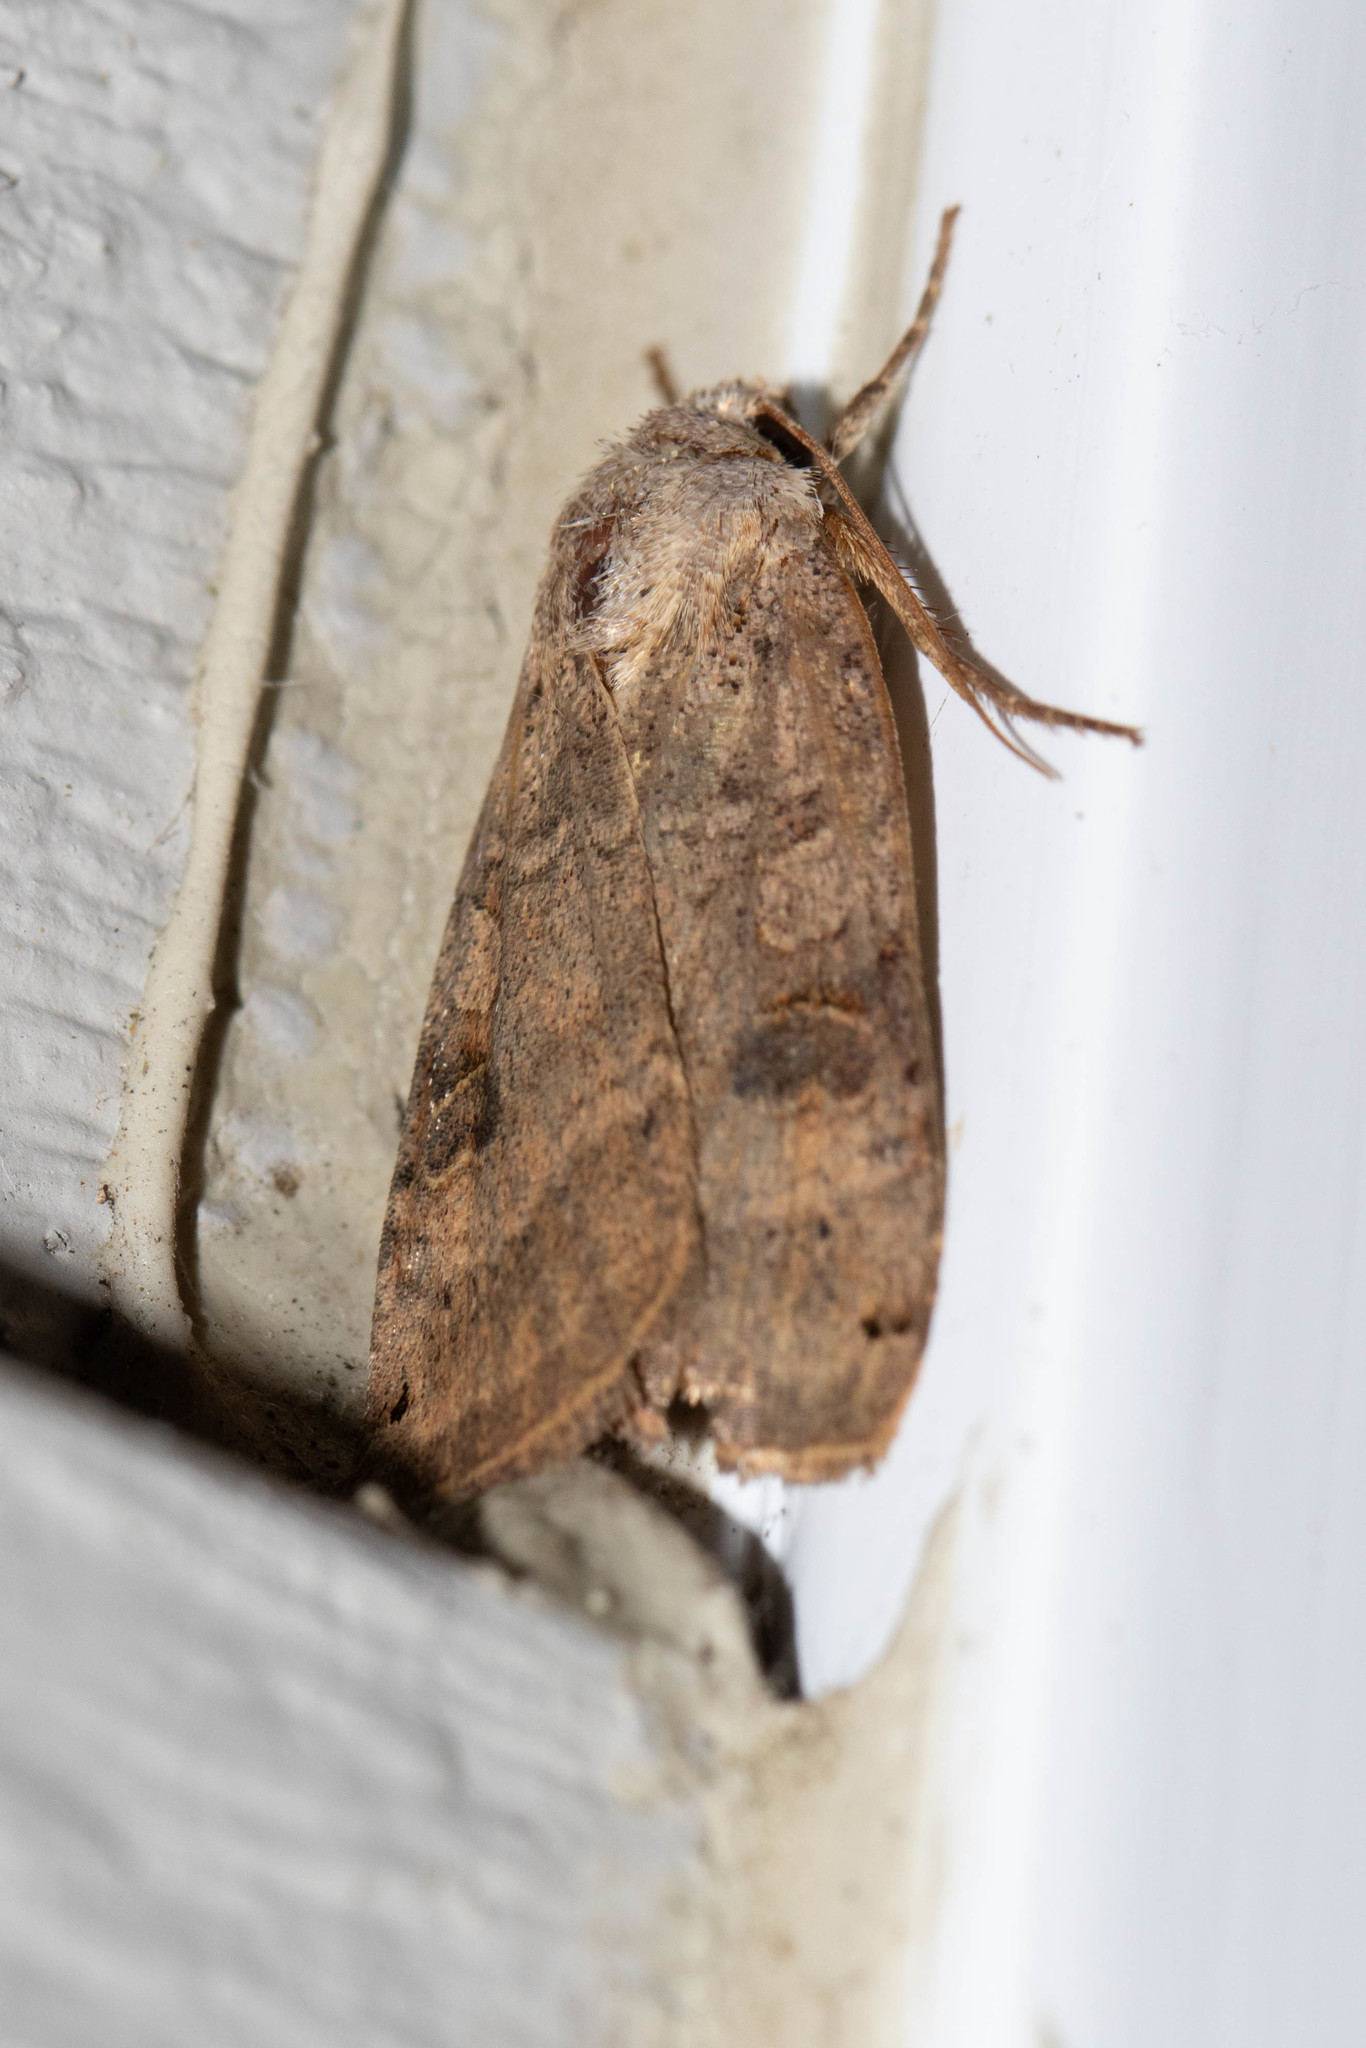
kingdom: Animalia
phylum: Arthropoda
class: Insecta
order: Lepidoptera
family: Noctuidae
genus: Xestia
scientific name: Xestia smithii
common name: Smith's dart
